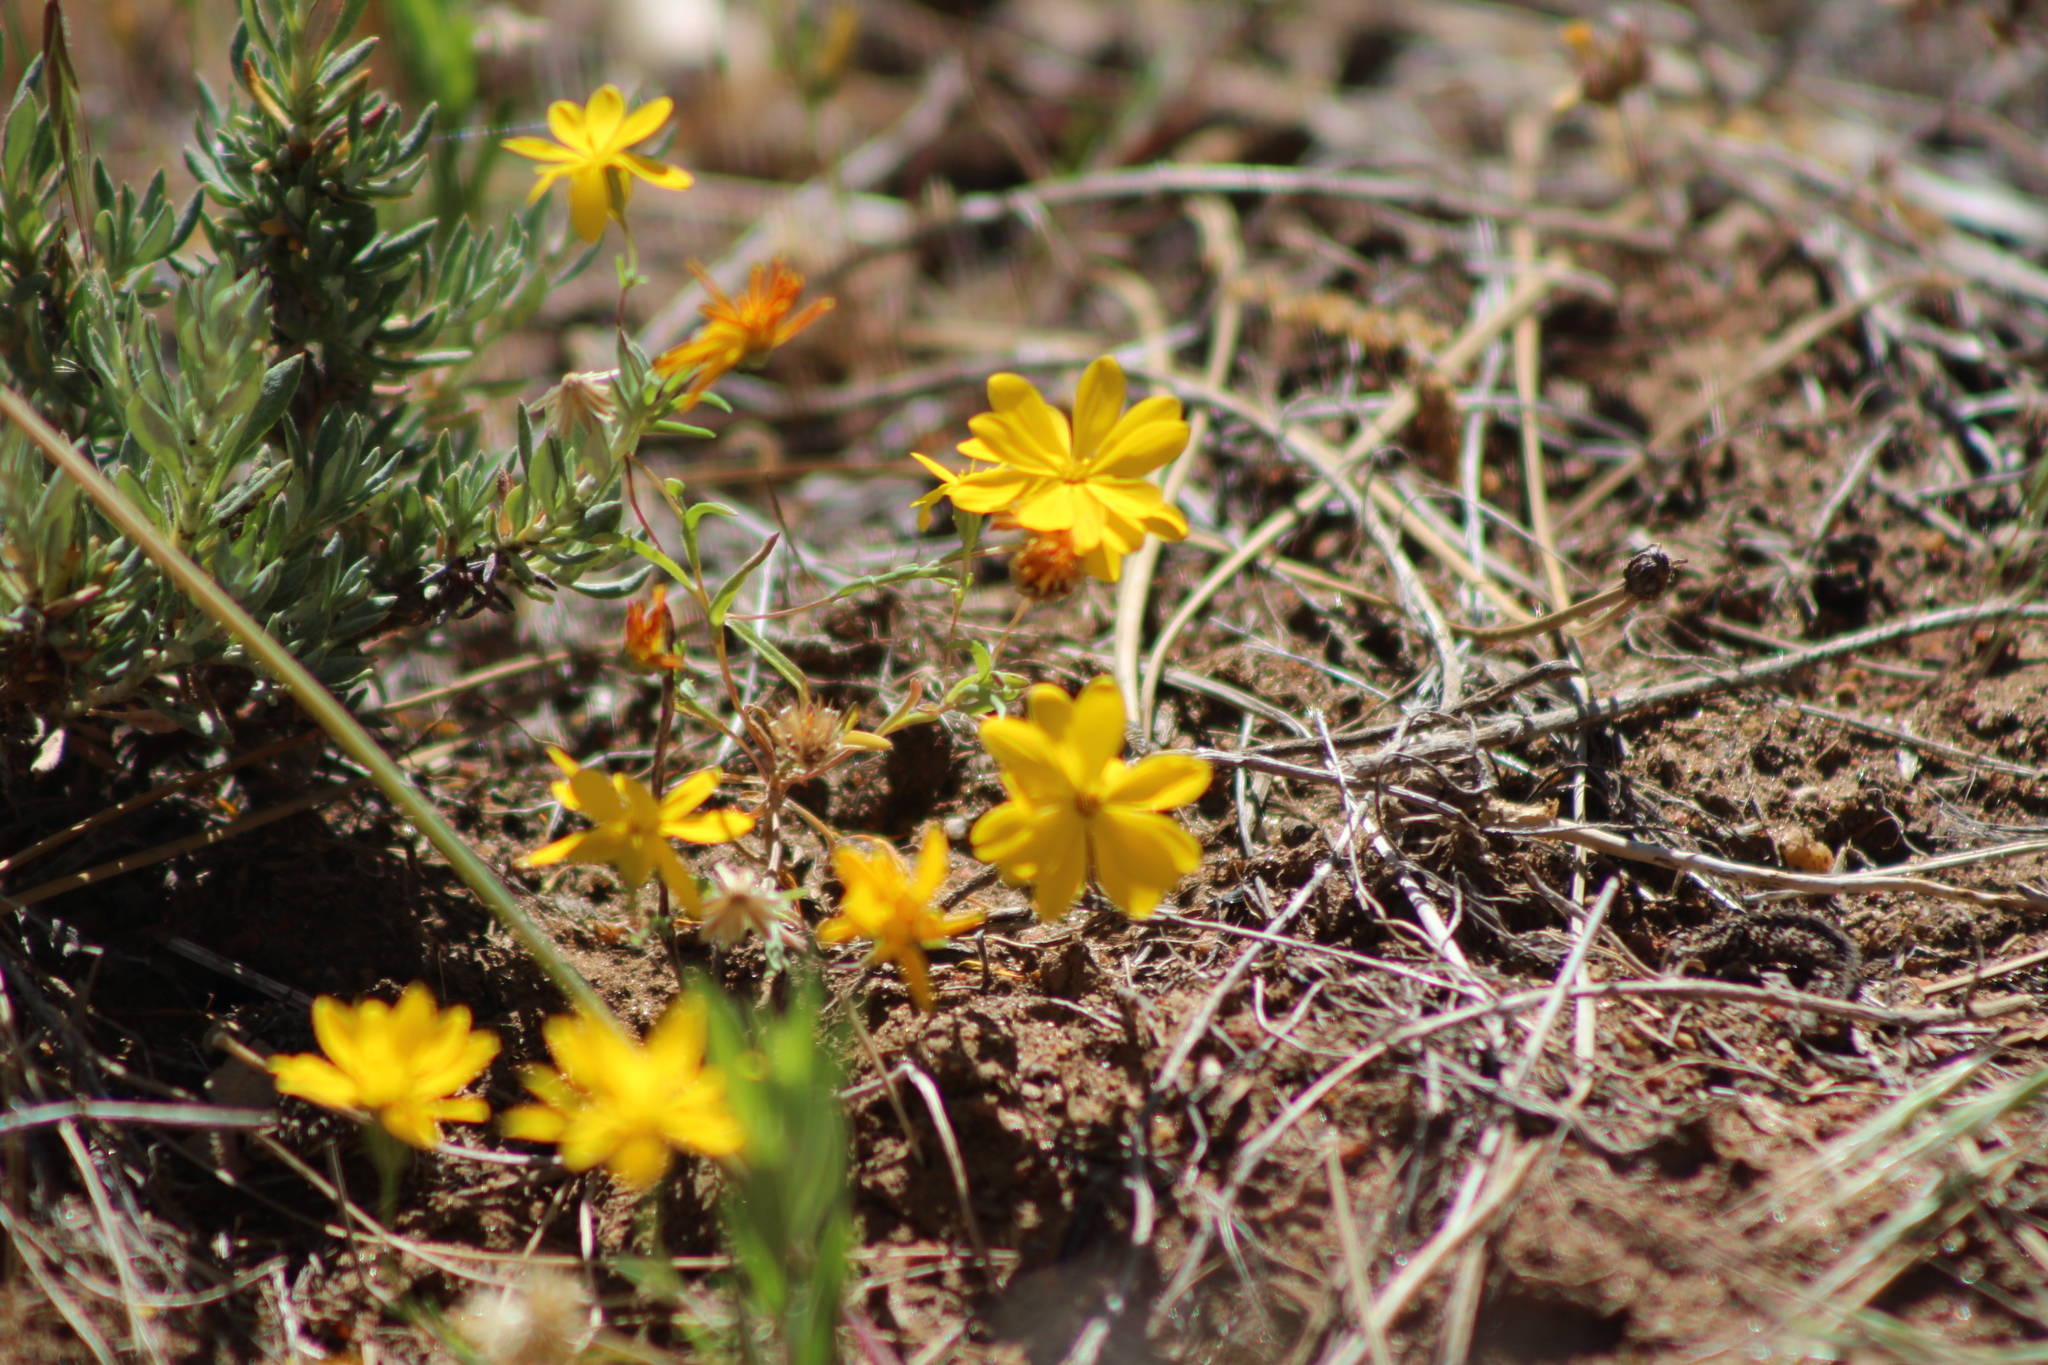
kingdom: Plantae
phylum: Tracheophyta
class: Magnoliopsida
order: Asterales
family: Asteraceae
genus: Pentachaeta
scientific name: Pentachaeta aurea
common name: Golden-ray pentachaeta
